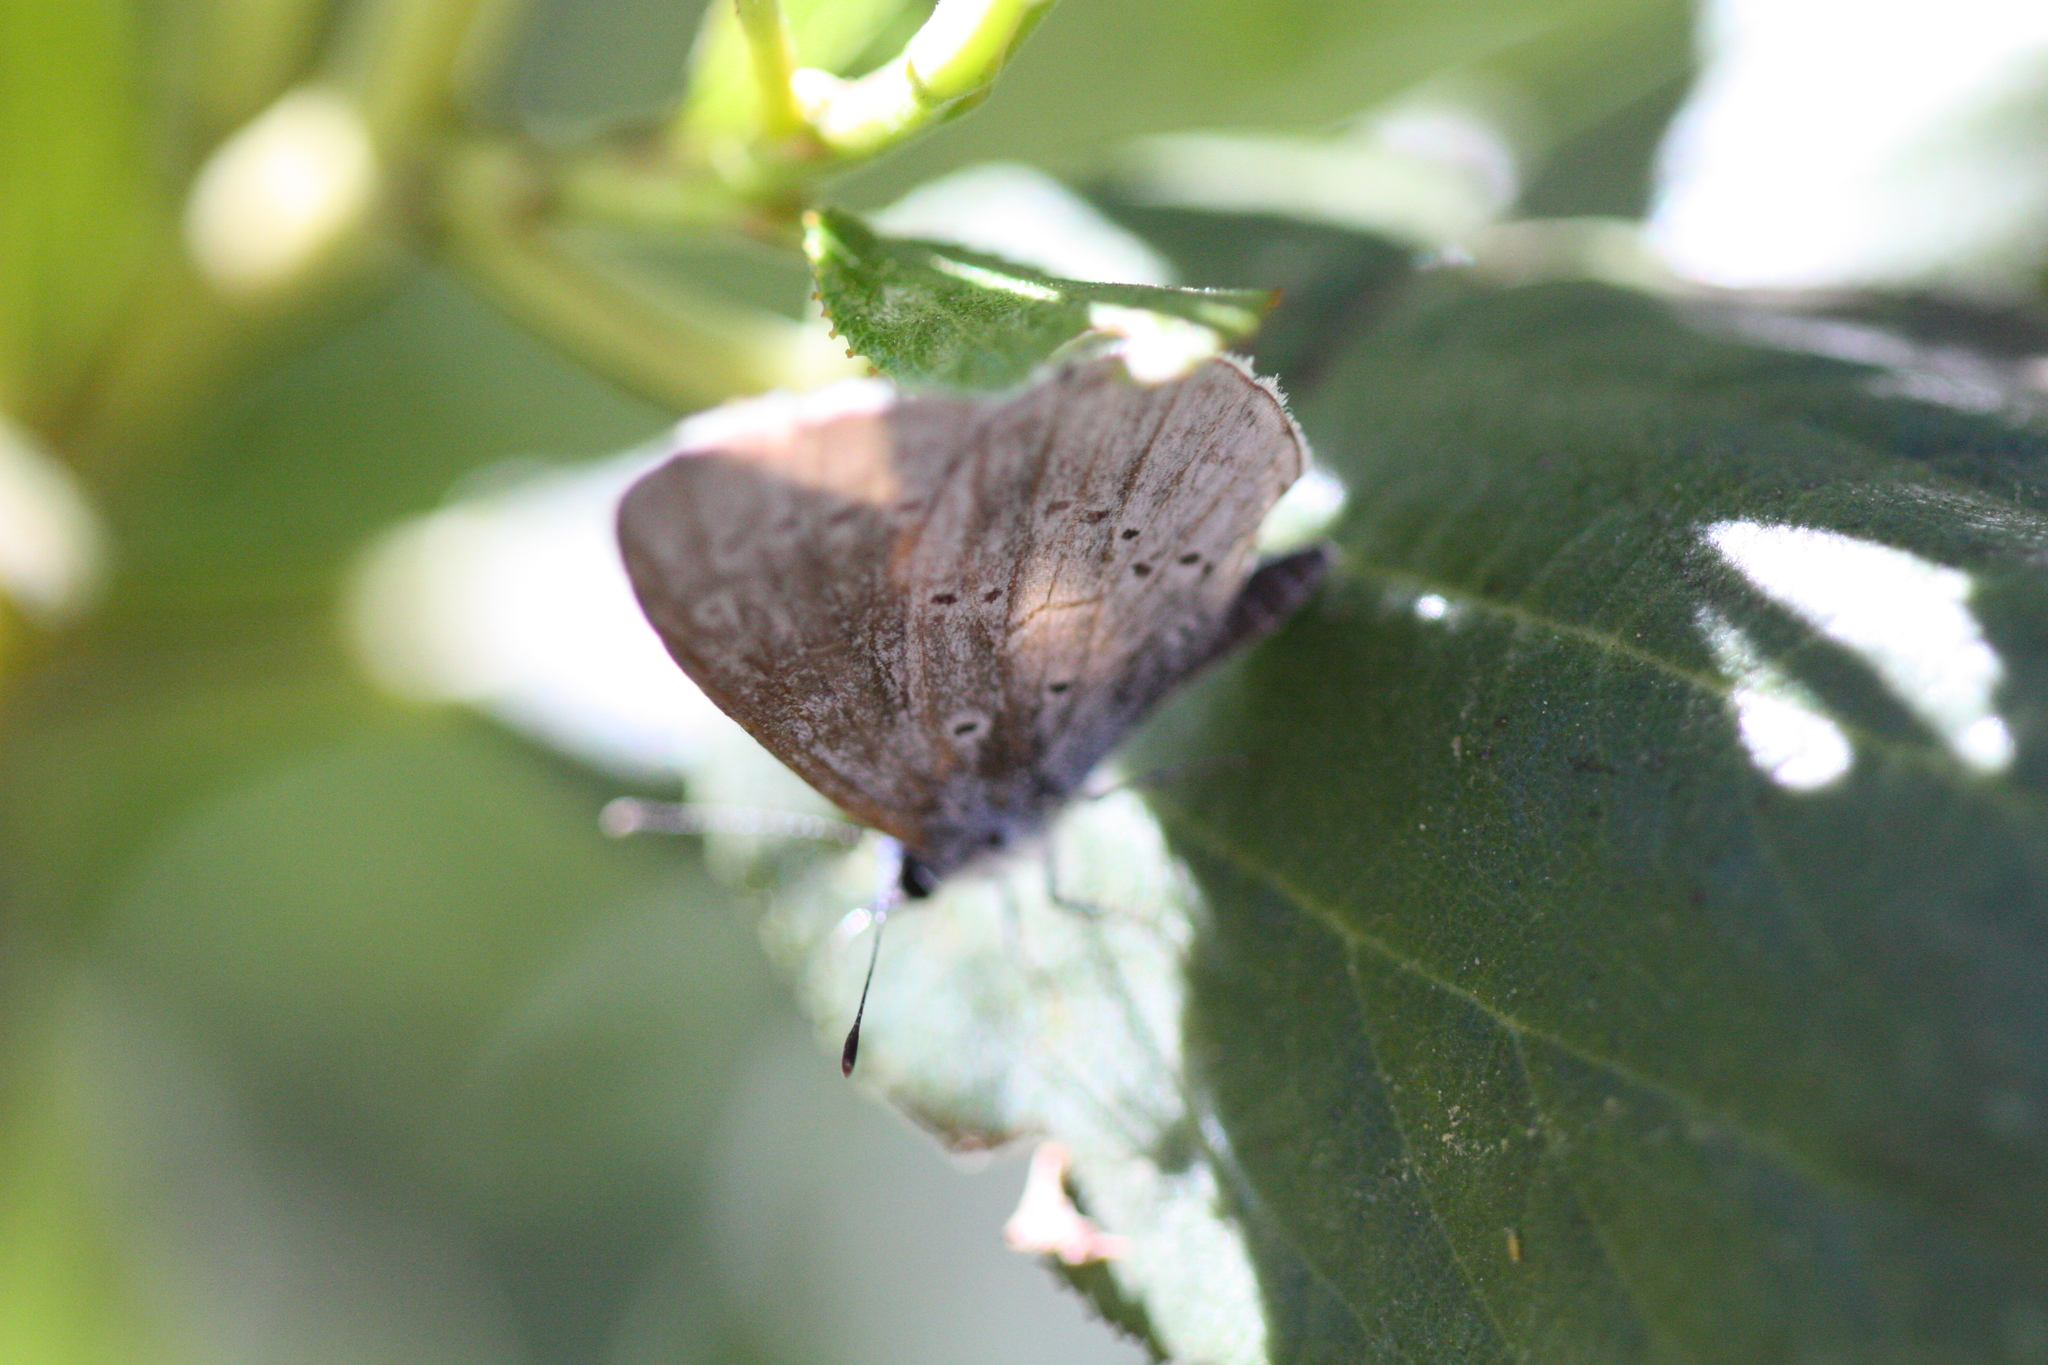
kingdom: Animalia
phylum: Arthropoda
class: Insecta
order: Lepidoptera
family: Lycaenidae
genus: Agriades
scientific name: Agriades podarce
